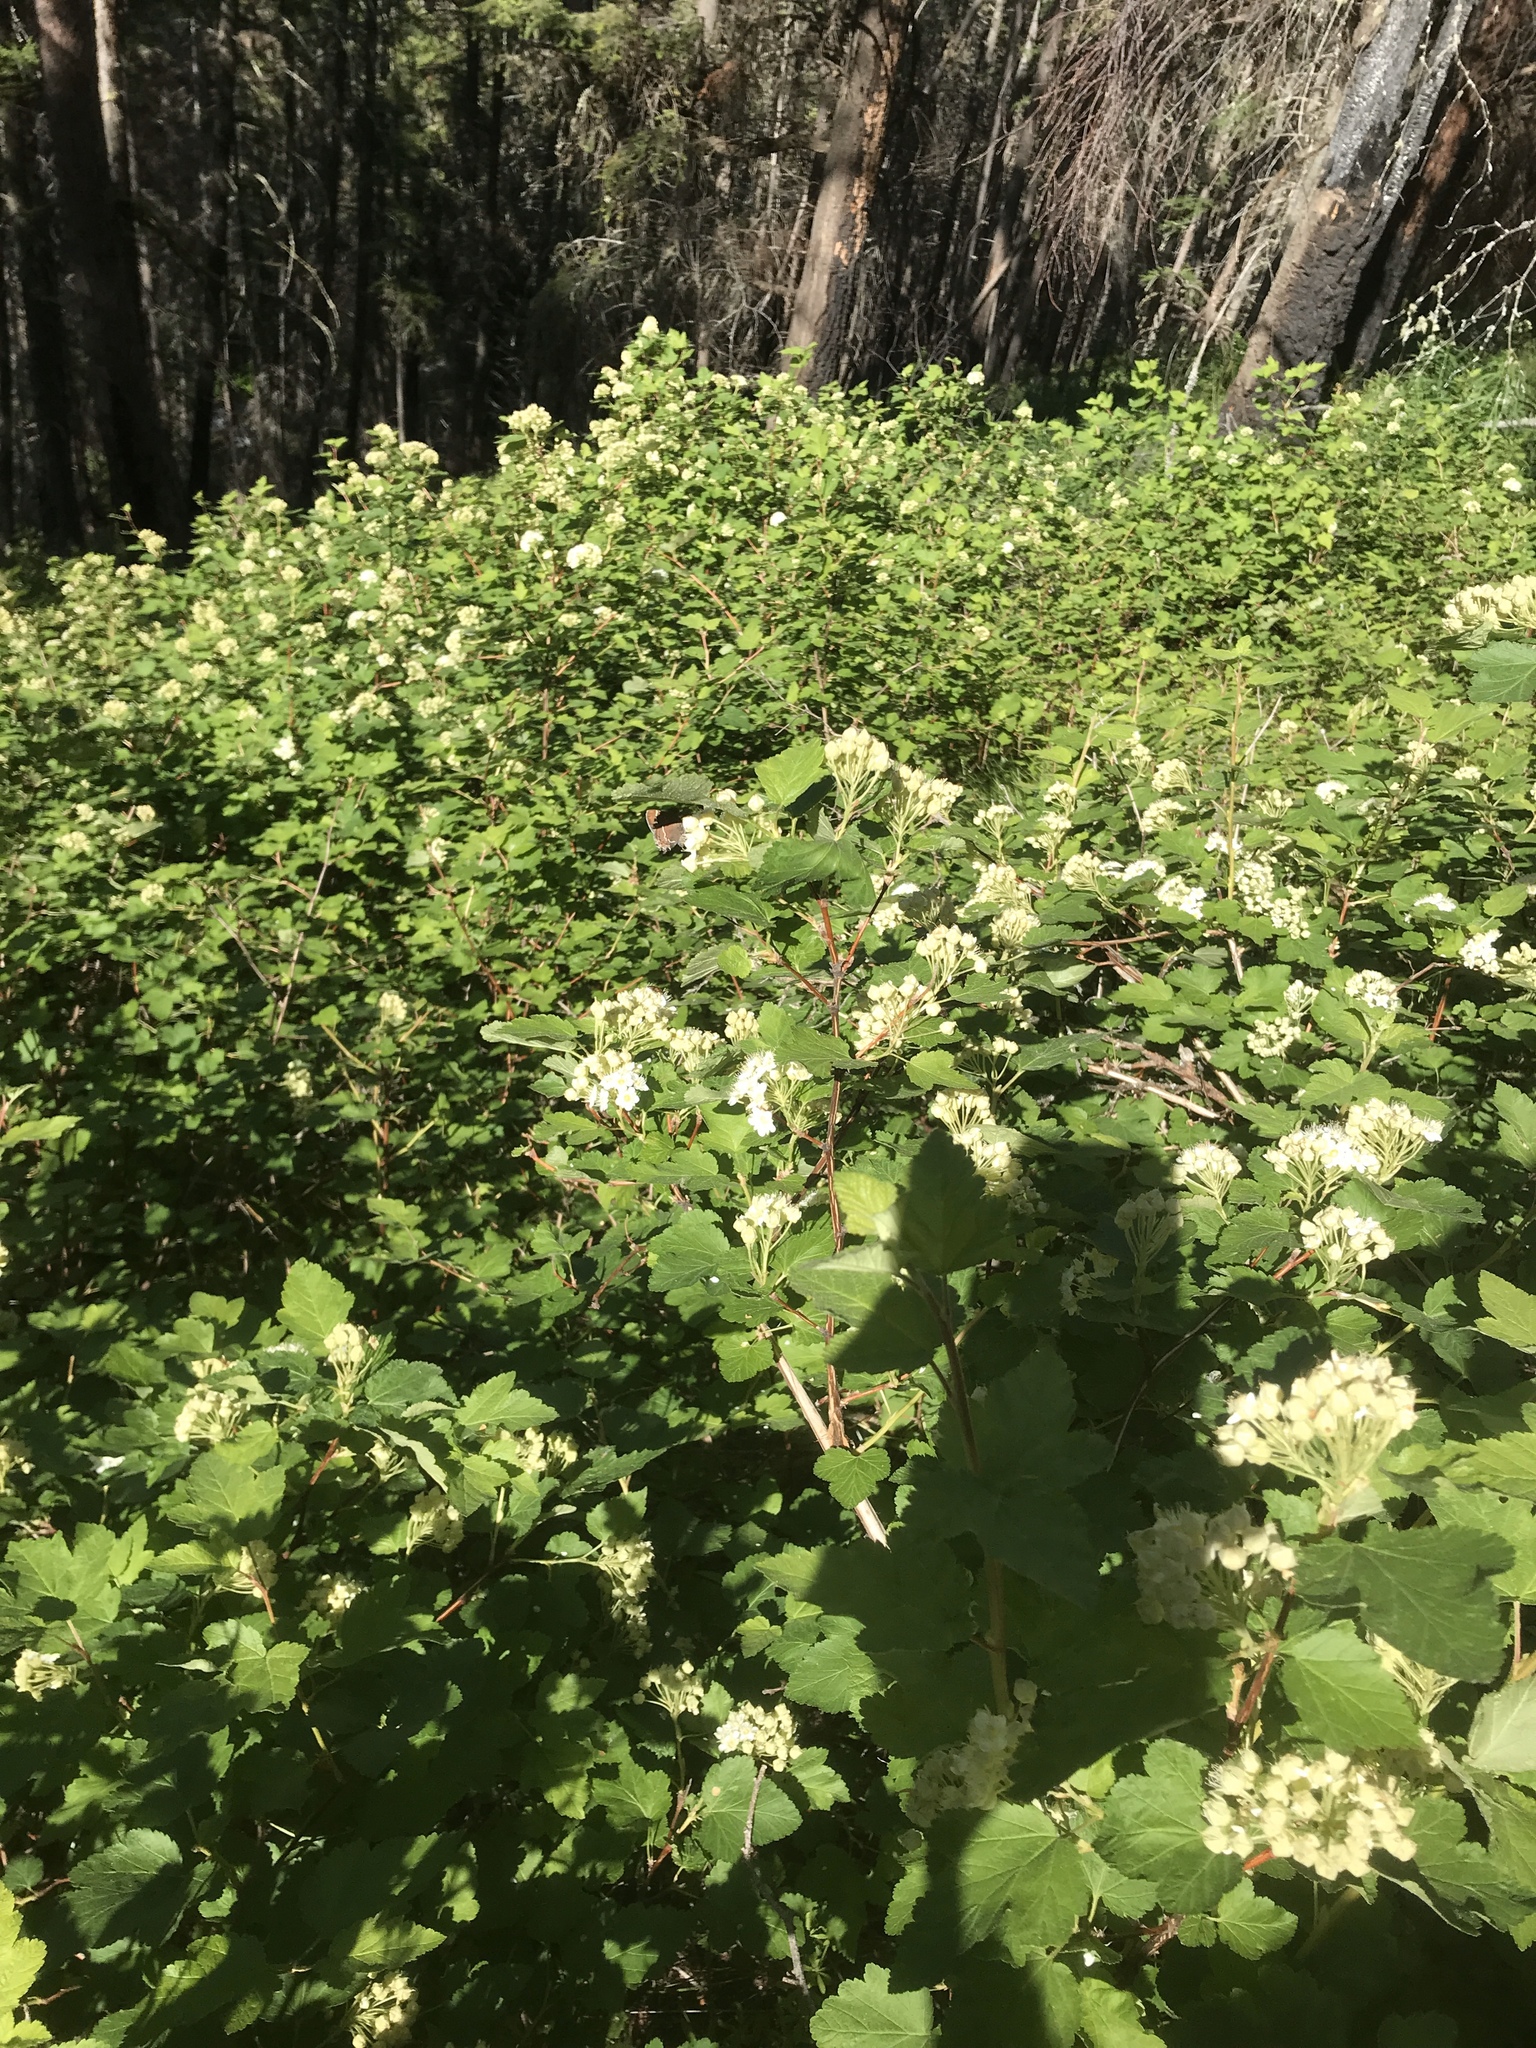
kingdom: Animalia
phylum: Arthropoda
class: Insecta
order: Lepidoptera
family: Lycaenidae
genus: Mitoura
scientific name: Mitoura spinetorum
